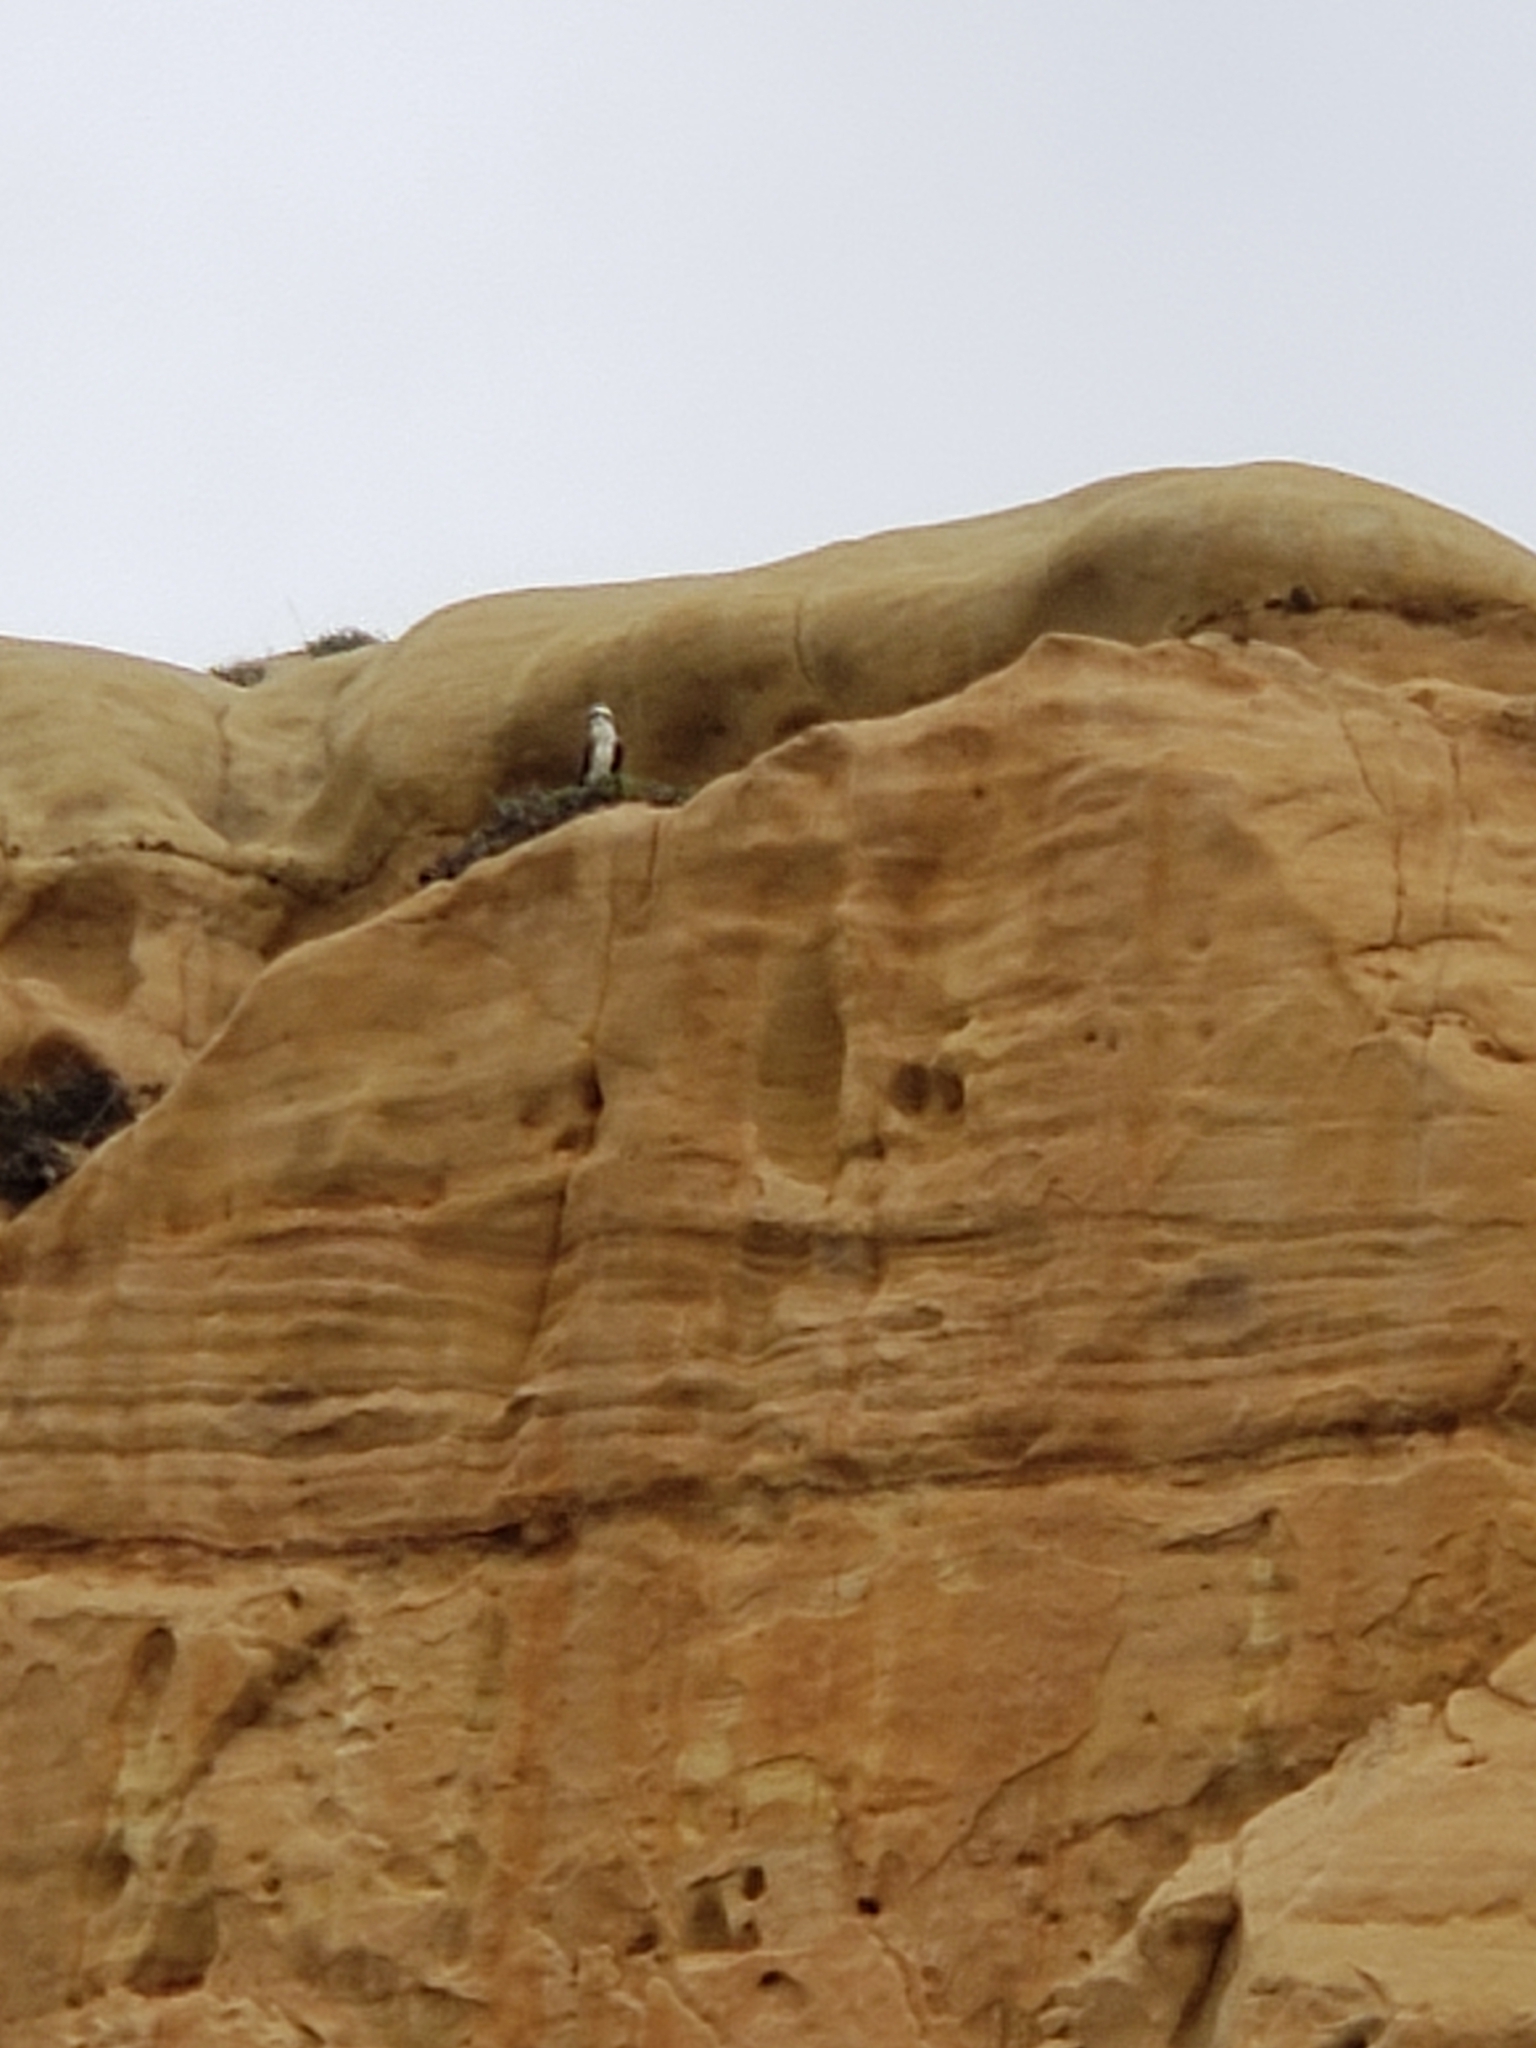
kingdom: Animalia
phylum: Chordata
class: Aves
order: Accipitriformes
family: Pandionidae
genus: Pandion
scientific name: Pandion haliaetus
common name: Osprey
